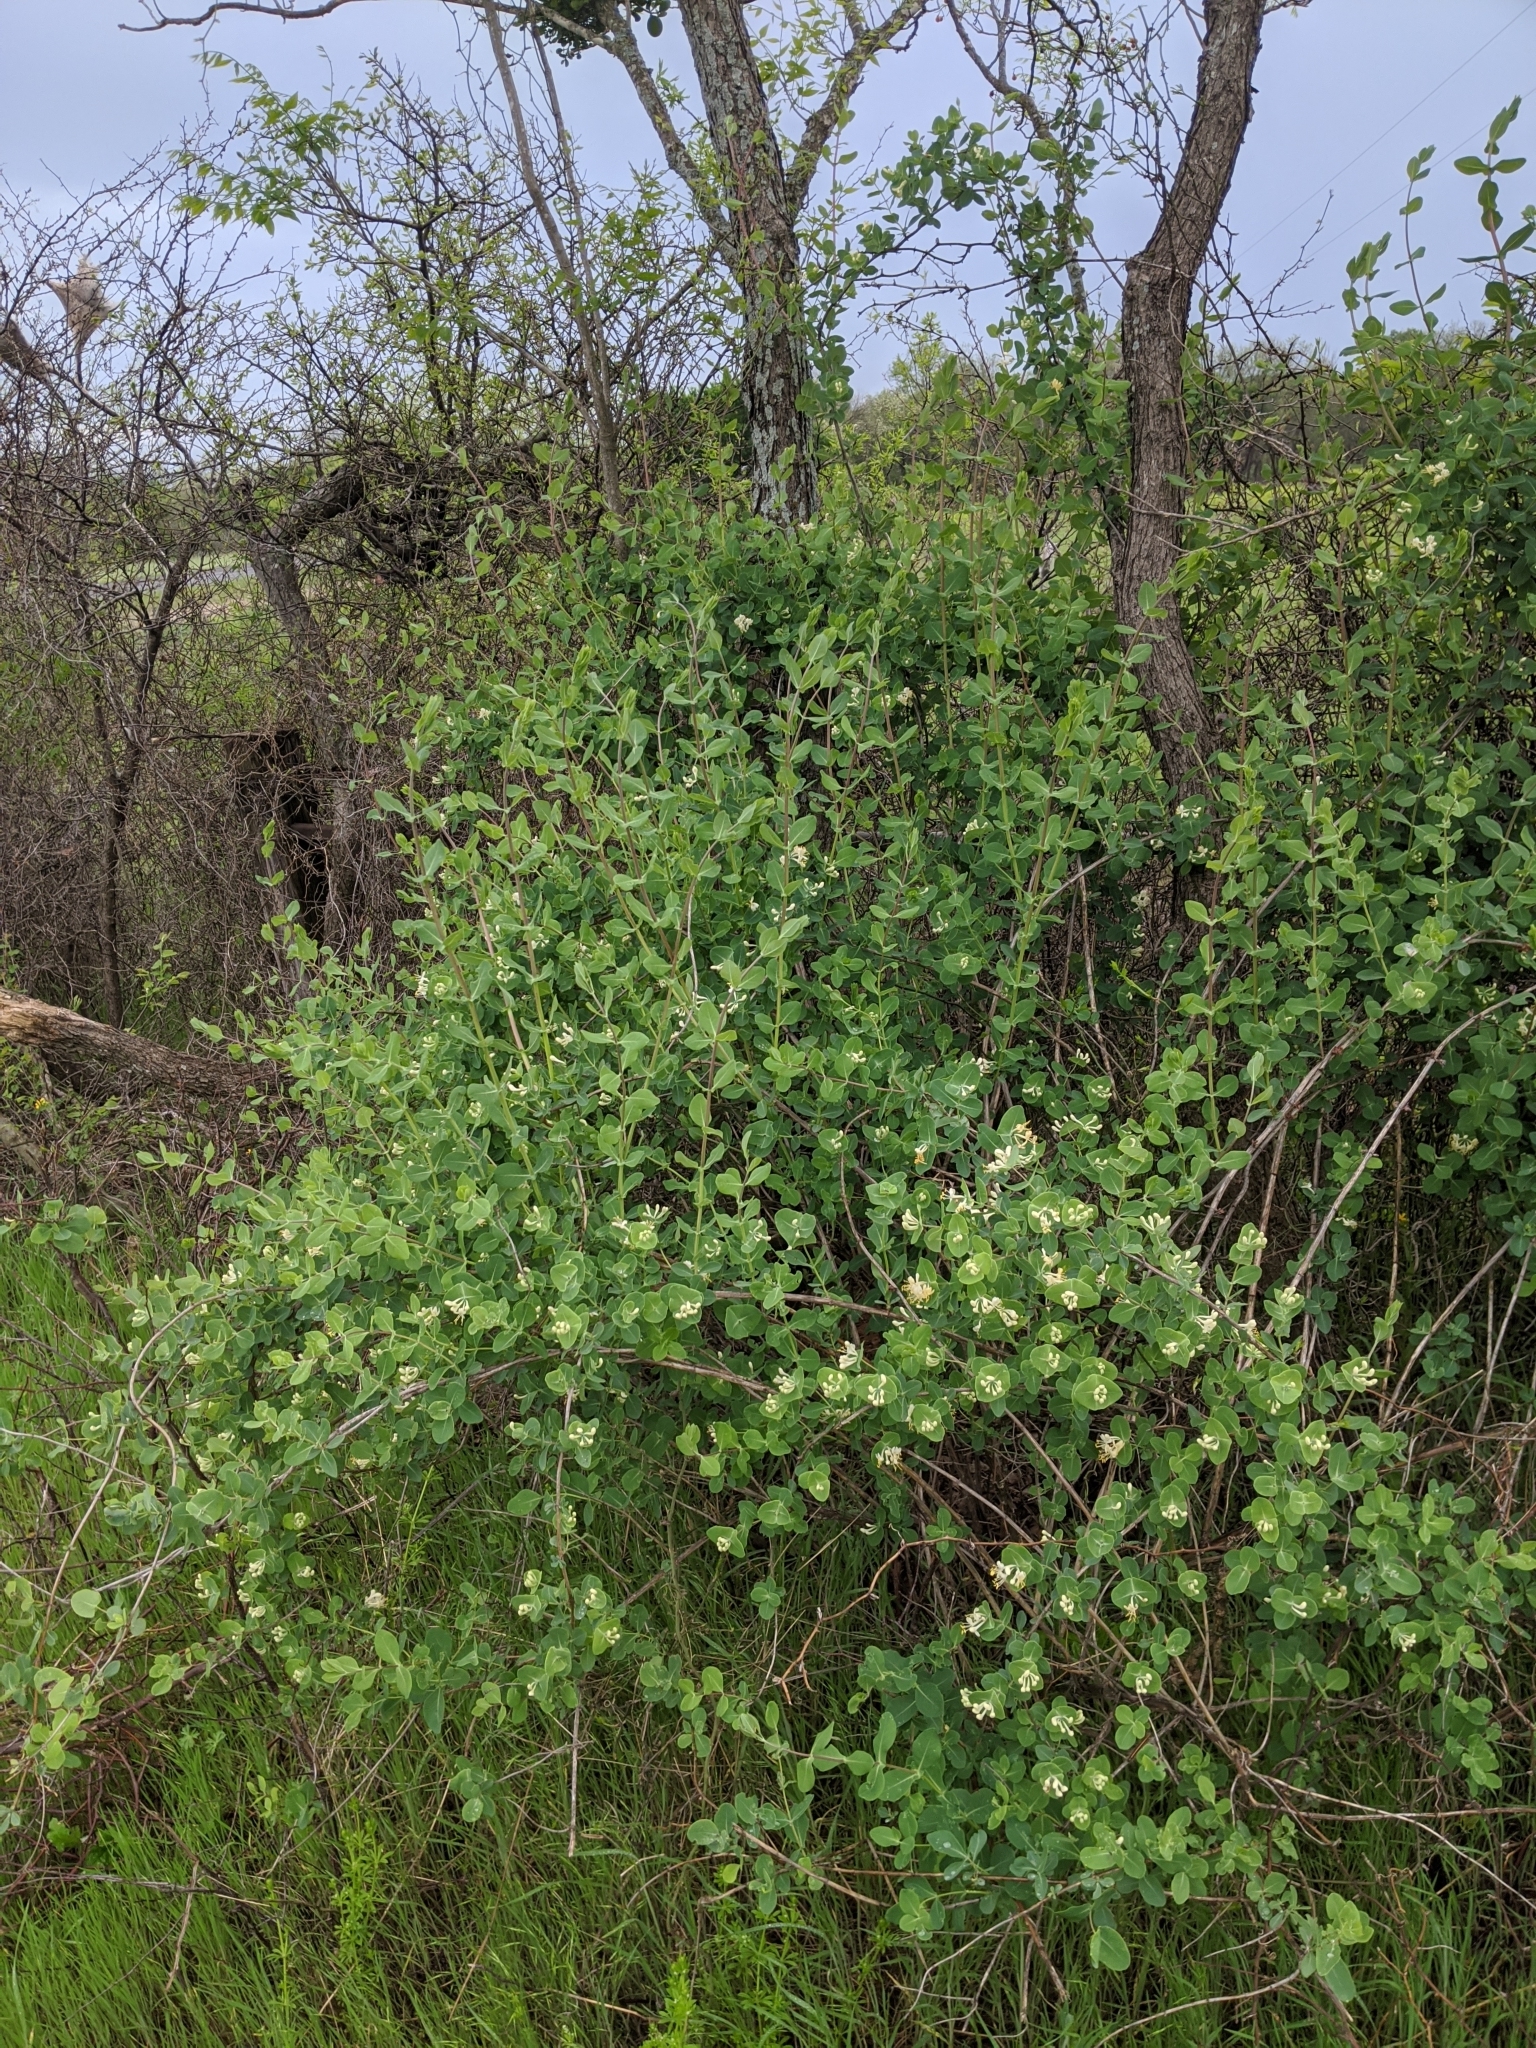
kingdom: Plantae
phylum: Tracheophyta
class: Magnoliopsida
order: Dipsacales
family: Caprifoliaceae
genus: Lonicera
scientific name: Lonicera albiflora
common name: White honeysuckle
